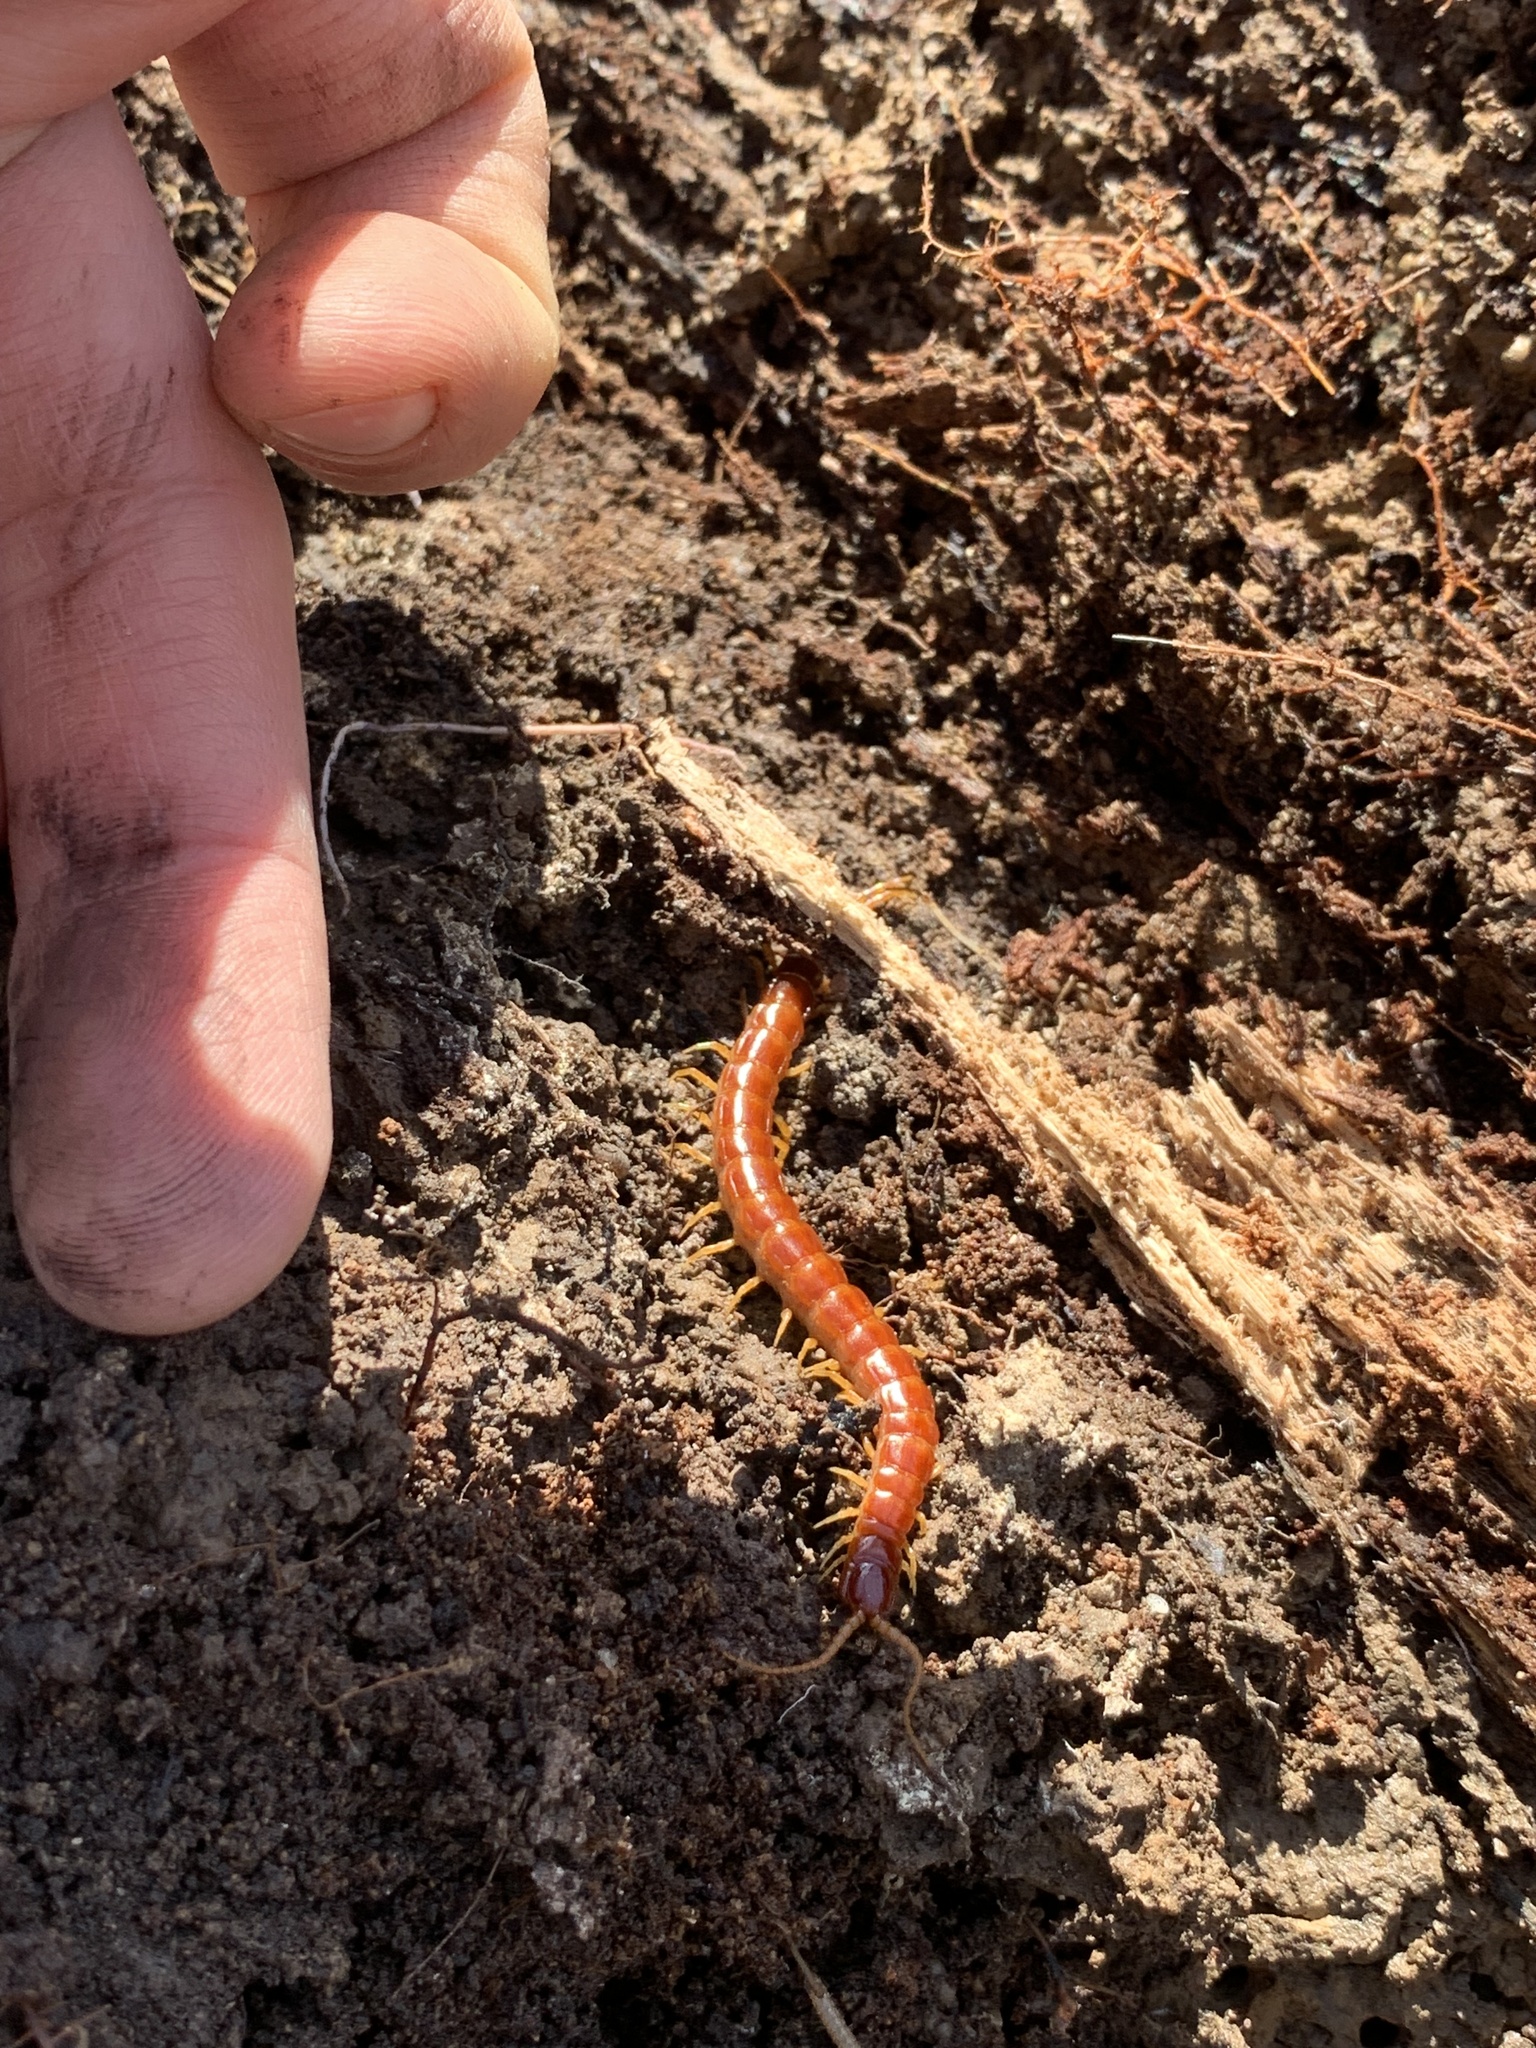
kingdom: Animalia
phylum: Arthropoda
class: Chilopoda
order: Scolopendromorpha
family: Scolopocryptopidae
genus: Scolopocryptops
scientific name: Scolopocryptops sexspinosus
